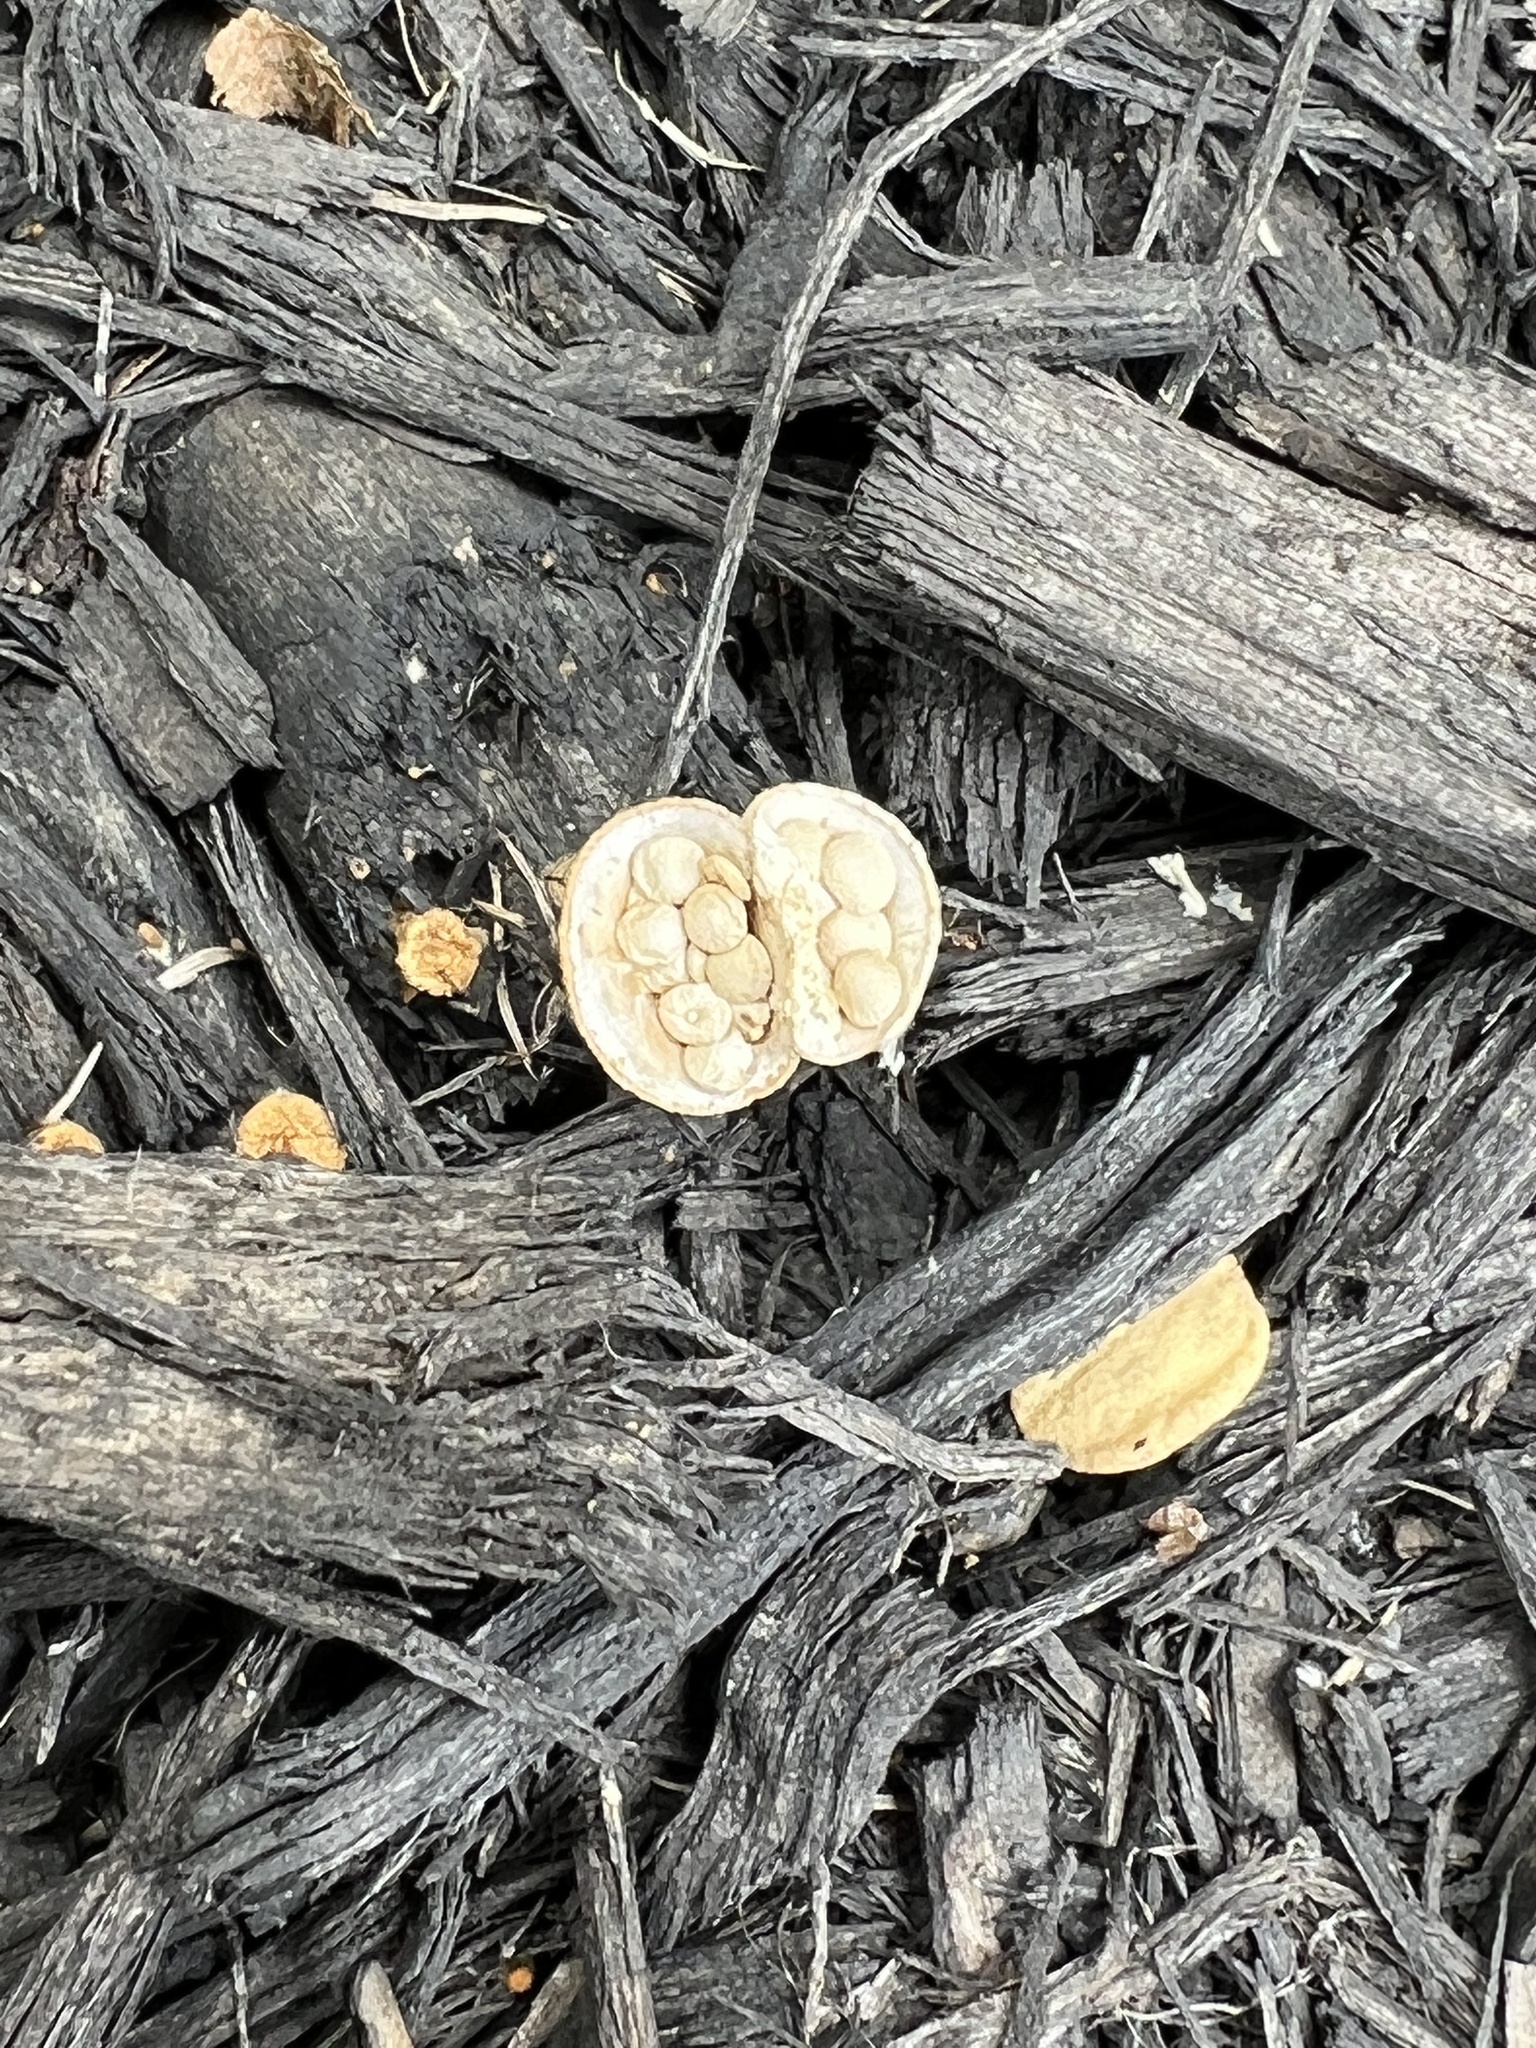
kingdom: Fungi
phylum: Basidiomycota
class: Agaricomycetes
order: Agaricales
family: Nidulariaceae
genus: Crucibulum
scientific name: Crucibulum laeve
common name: Common bird's nest
